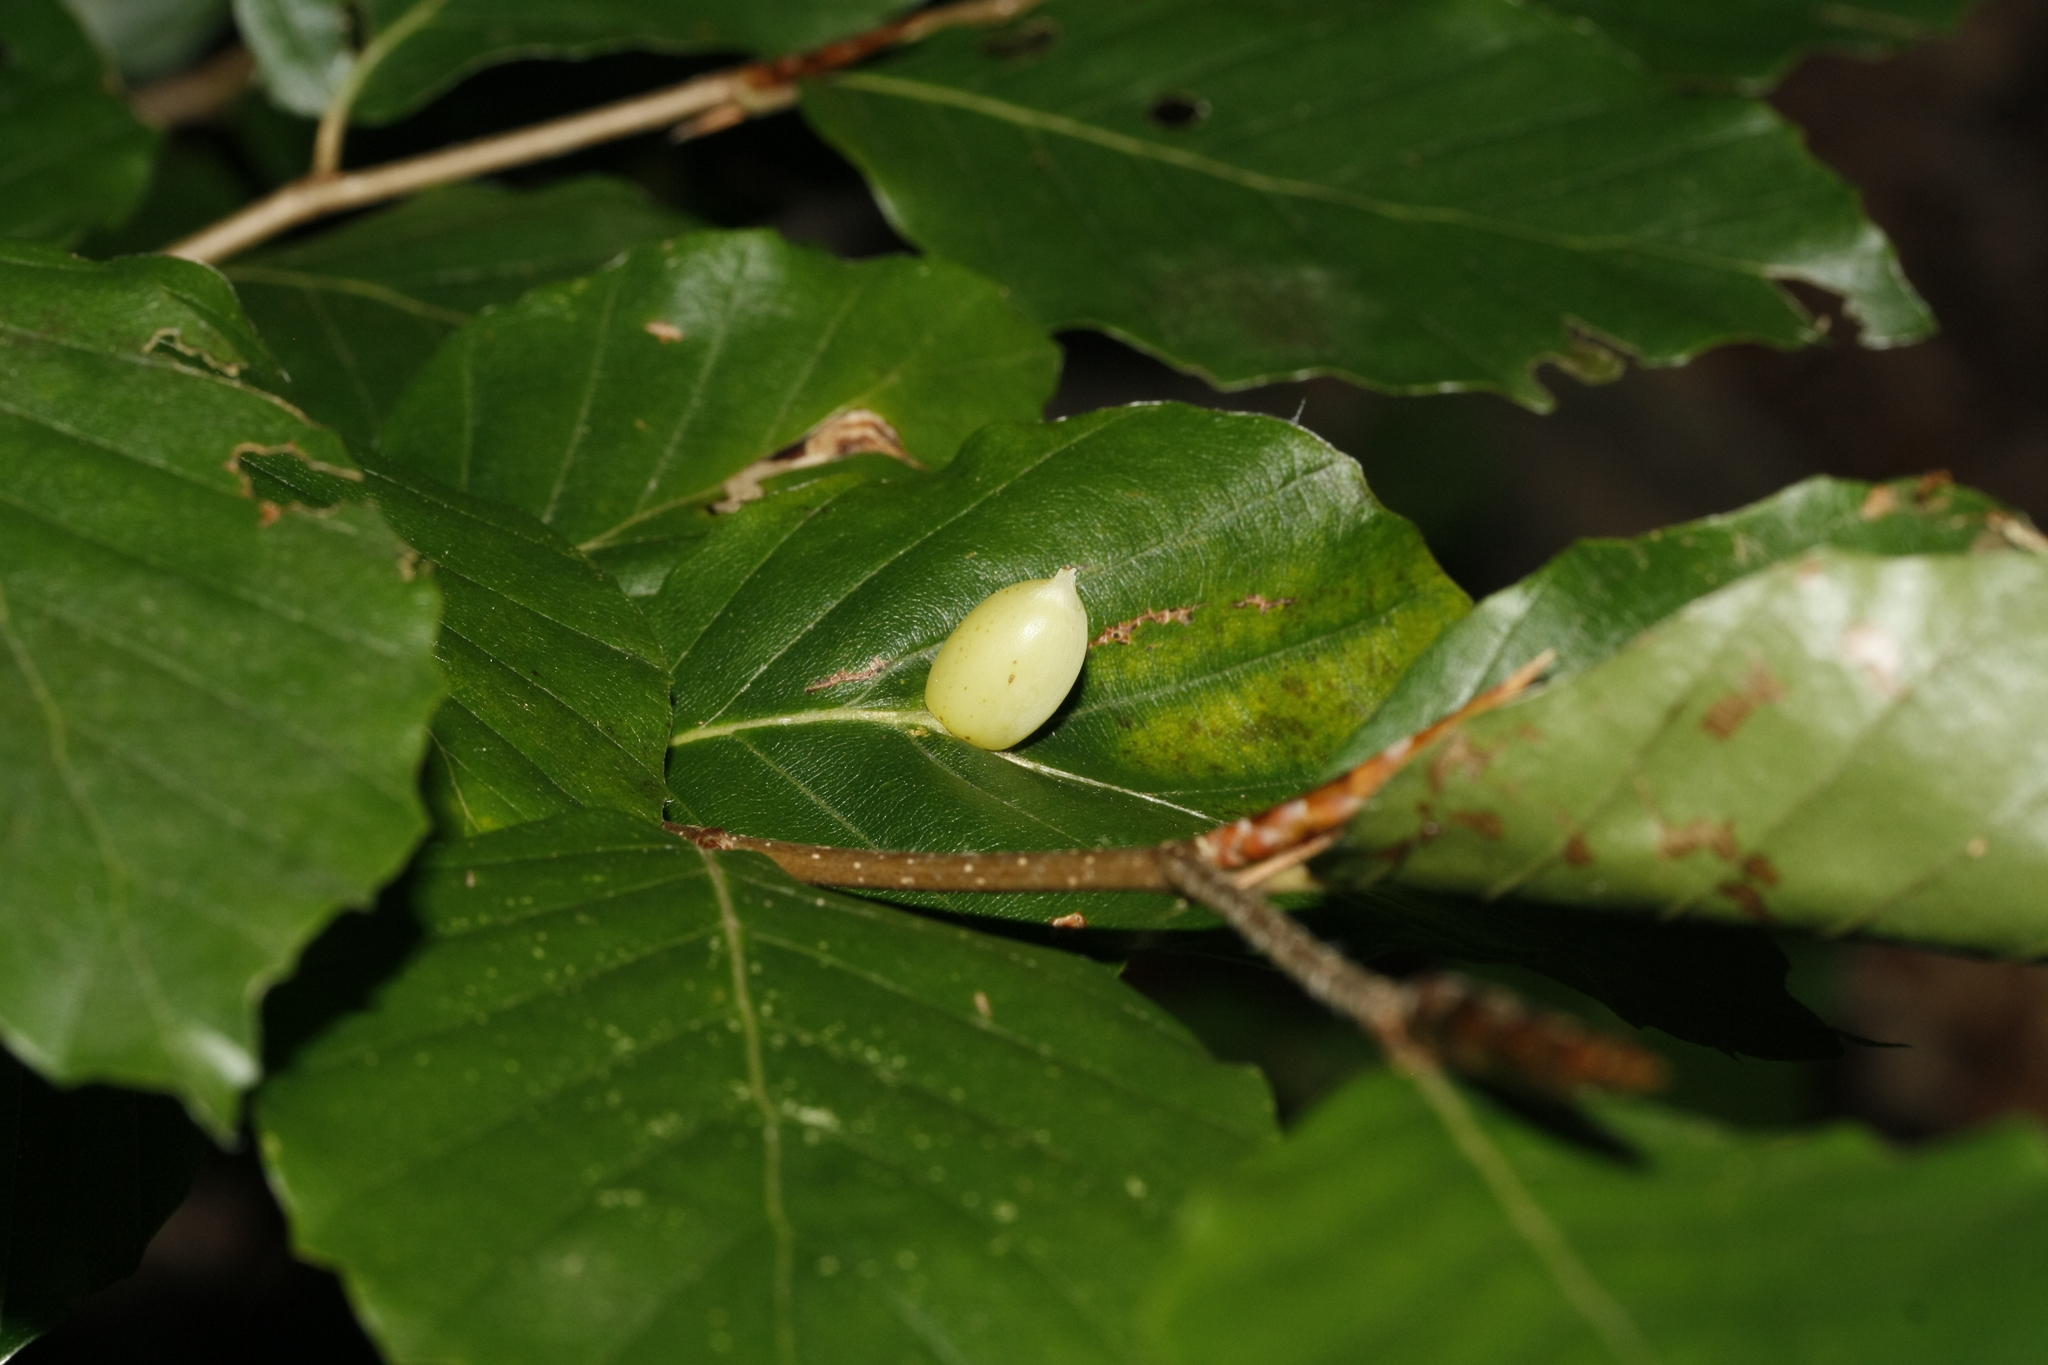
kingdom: Animalia
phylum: Arthropoda
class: Insecta
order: Diptera
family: Cecidomyiidae
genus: Mikiola
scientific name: Mikiola fagi
